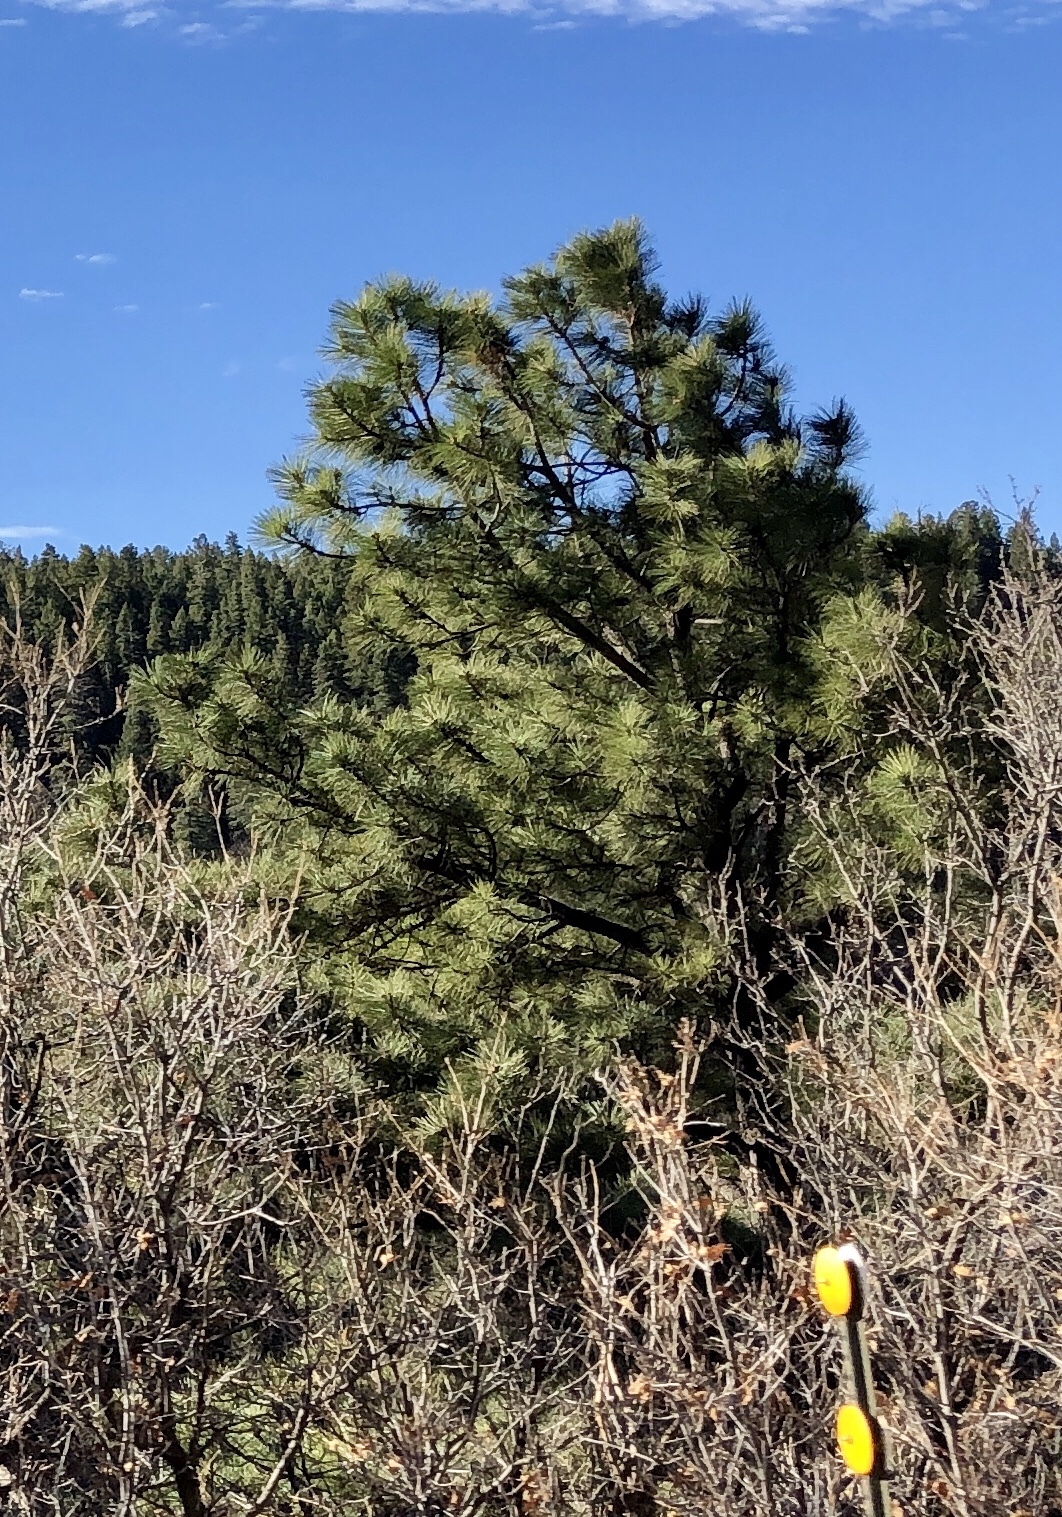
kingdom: Plantae
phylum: Tracheophyta
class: Pinopsida
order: Pinales
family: Pinaceae
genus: Pinus
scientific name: Pinus ponderosa
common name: Western yellow-pine
